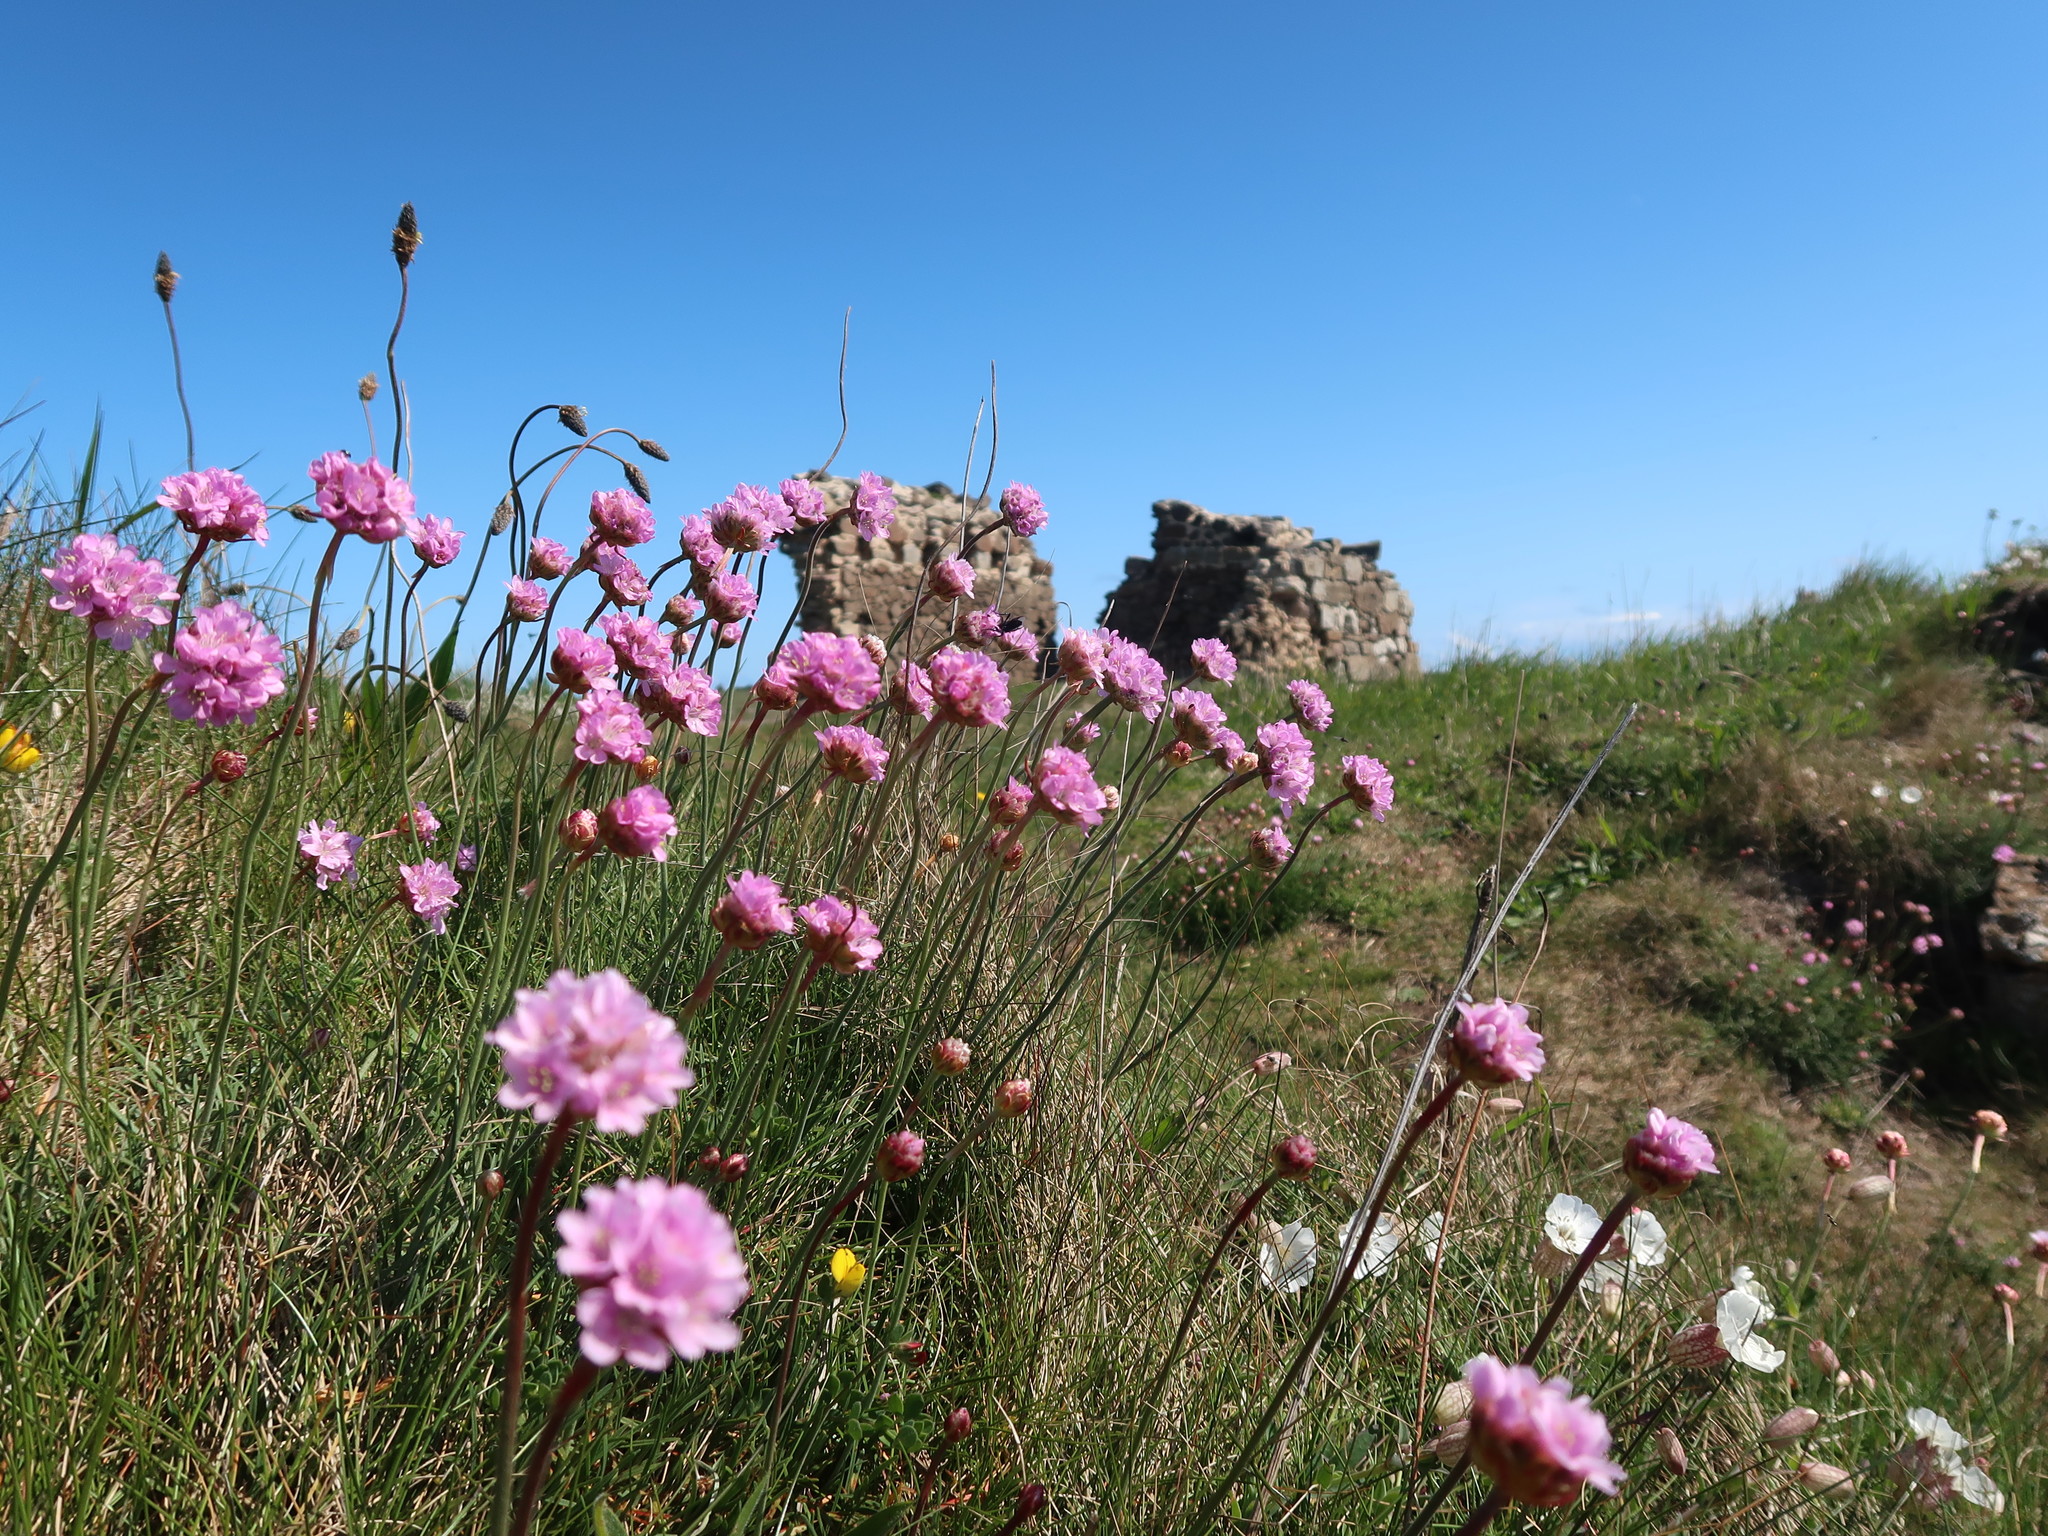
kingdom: Plantae
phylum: Tracheophyta
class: Magnoliopsida
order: Caryophyllales
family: Plumbaginaceae
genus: Armeria
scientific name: Armeria maritima
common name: Thrift
